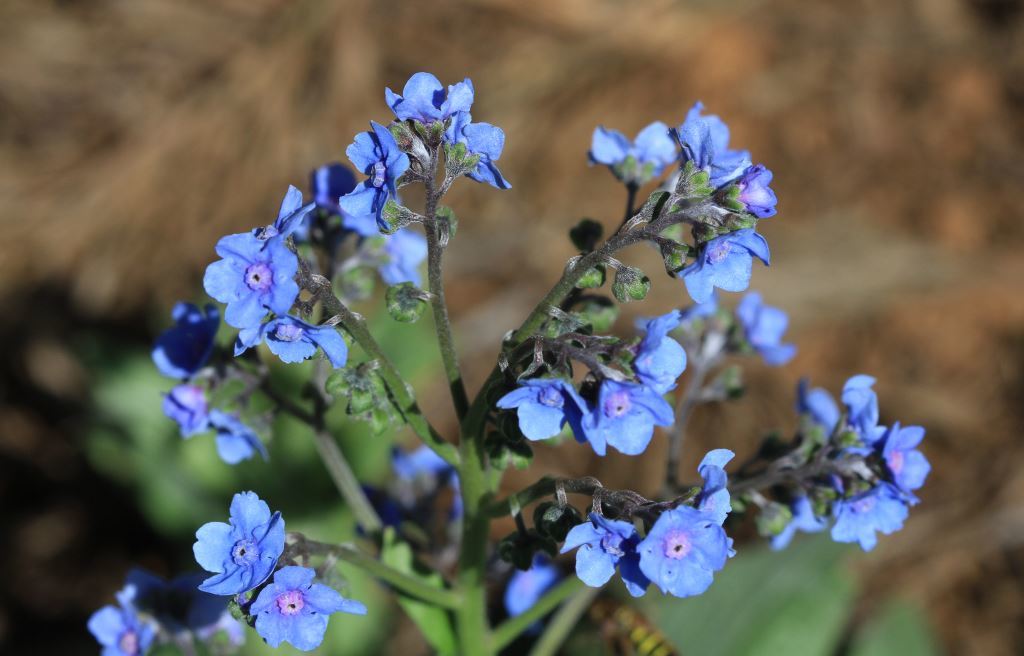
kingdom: Plantae
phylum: Tracheophyta
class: Magnoliopsida
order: Boraginales
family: Boraginaceae
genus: Cynoglossum
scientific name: Cynoglossum amabile
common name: Chinese hound's tongue
